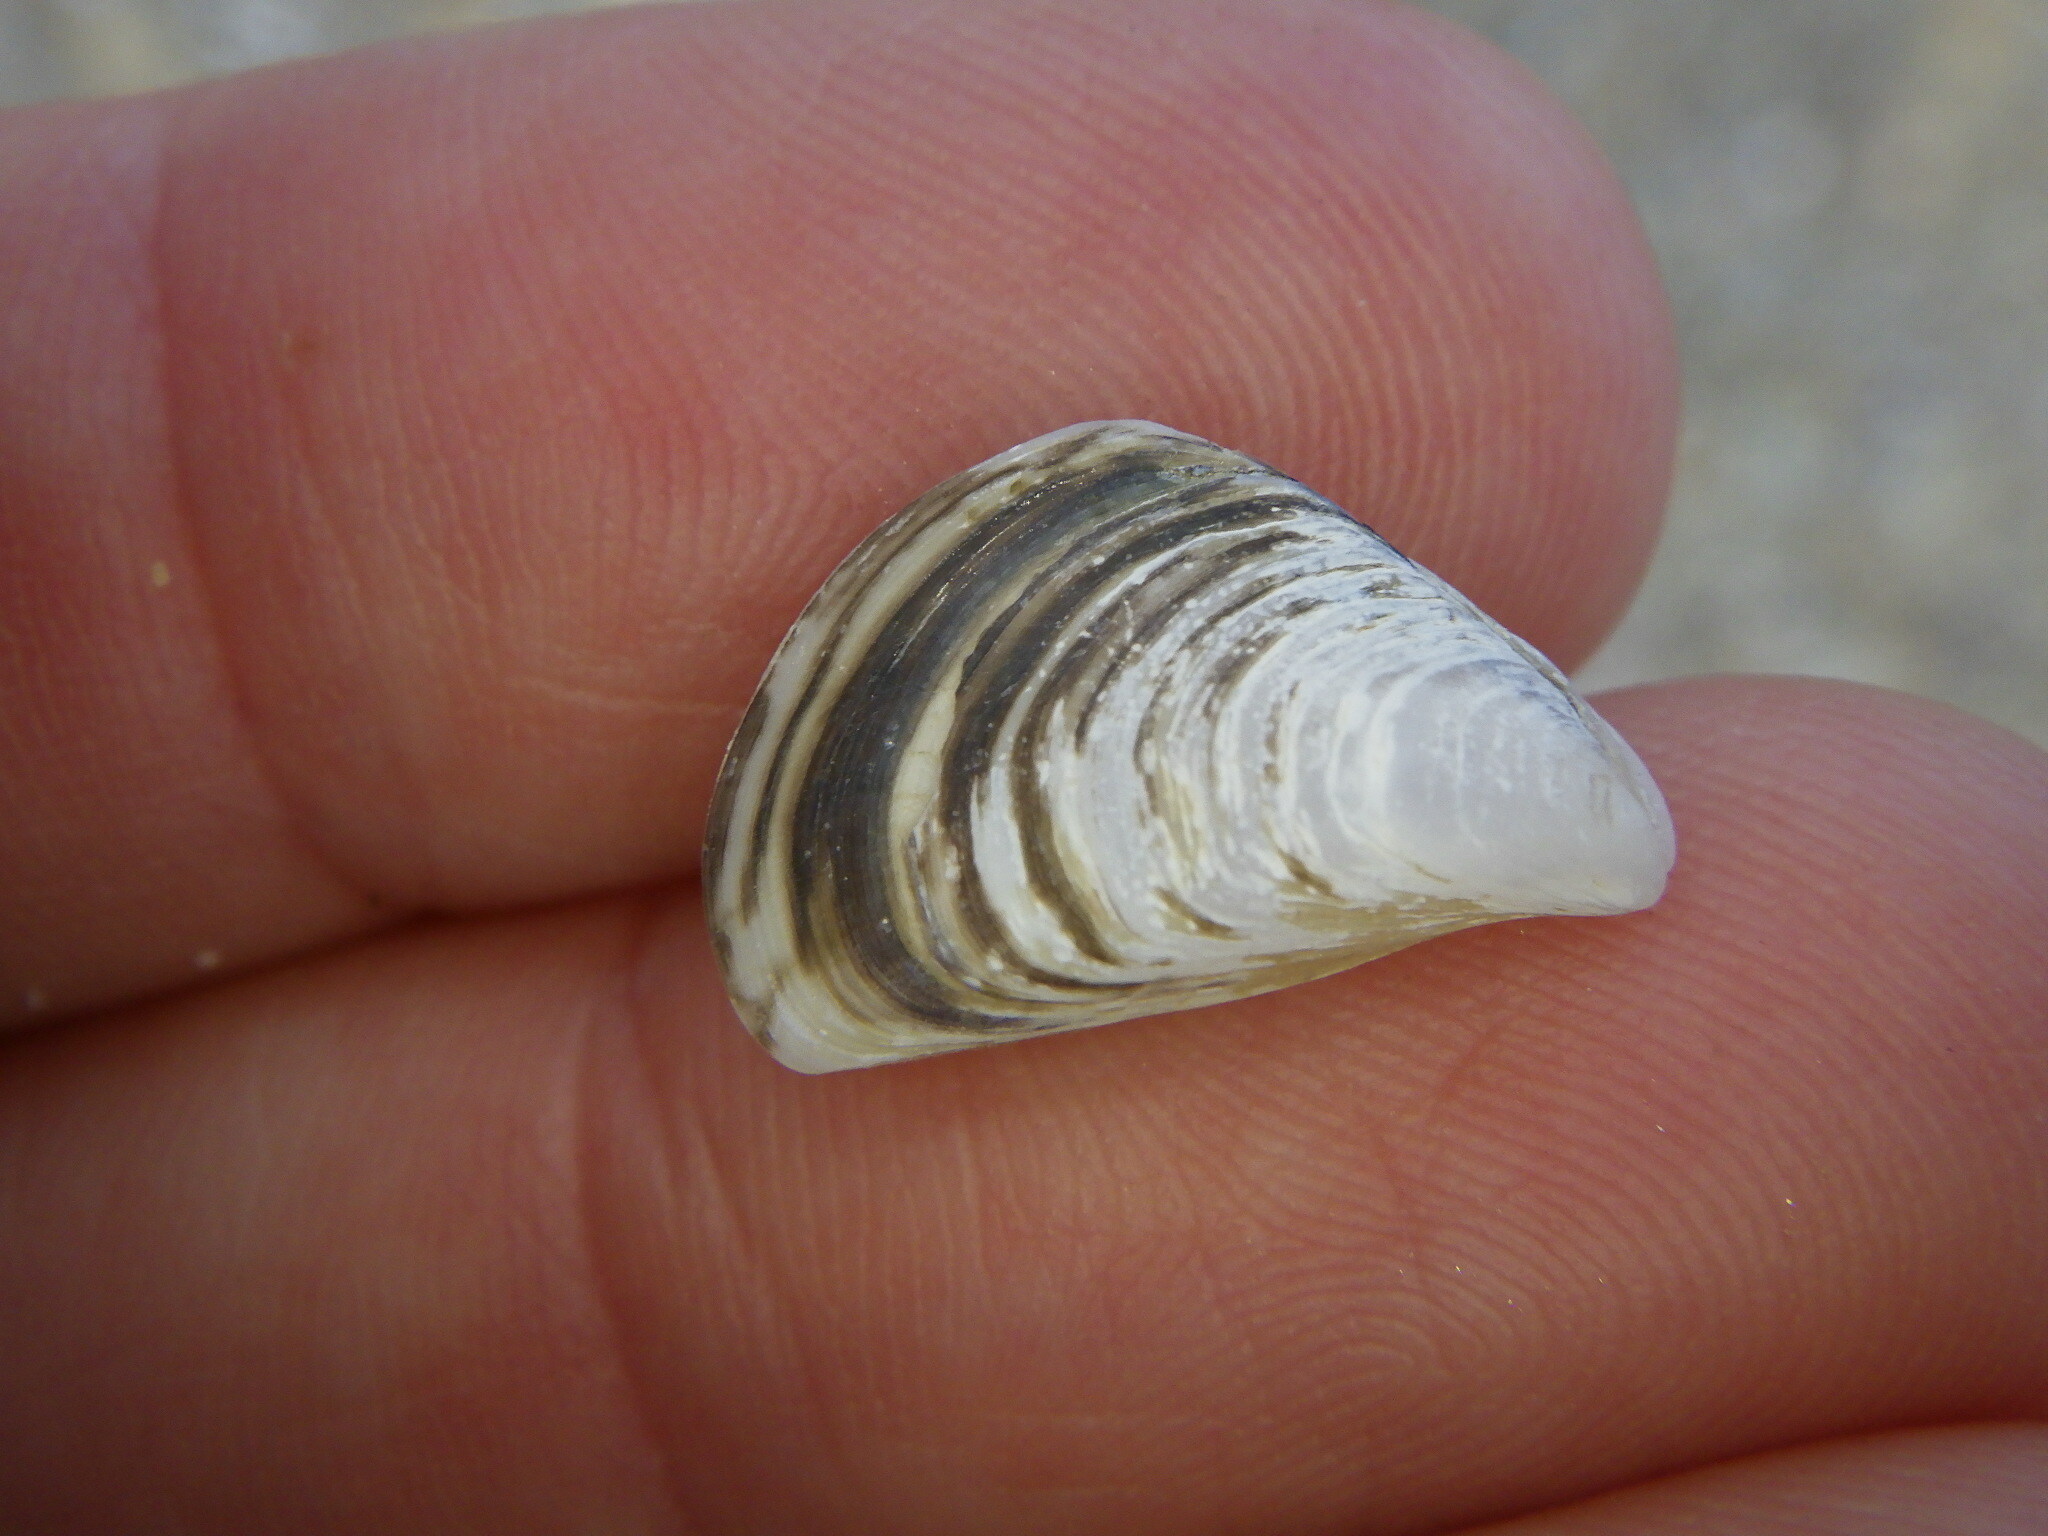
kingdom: Animalia
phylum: Mollusca
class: Bivalvia
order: Myida
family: Dreissenidae
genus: Dreissena
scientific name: Dreissena bugensis
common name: Quagga mussel
